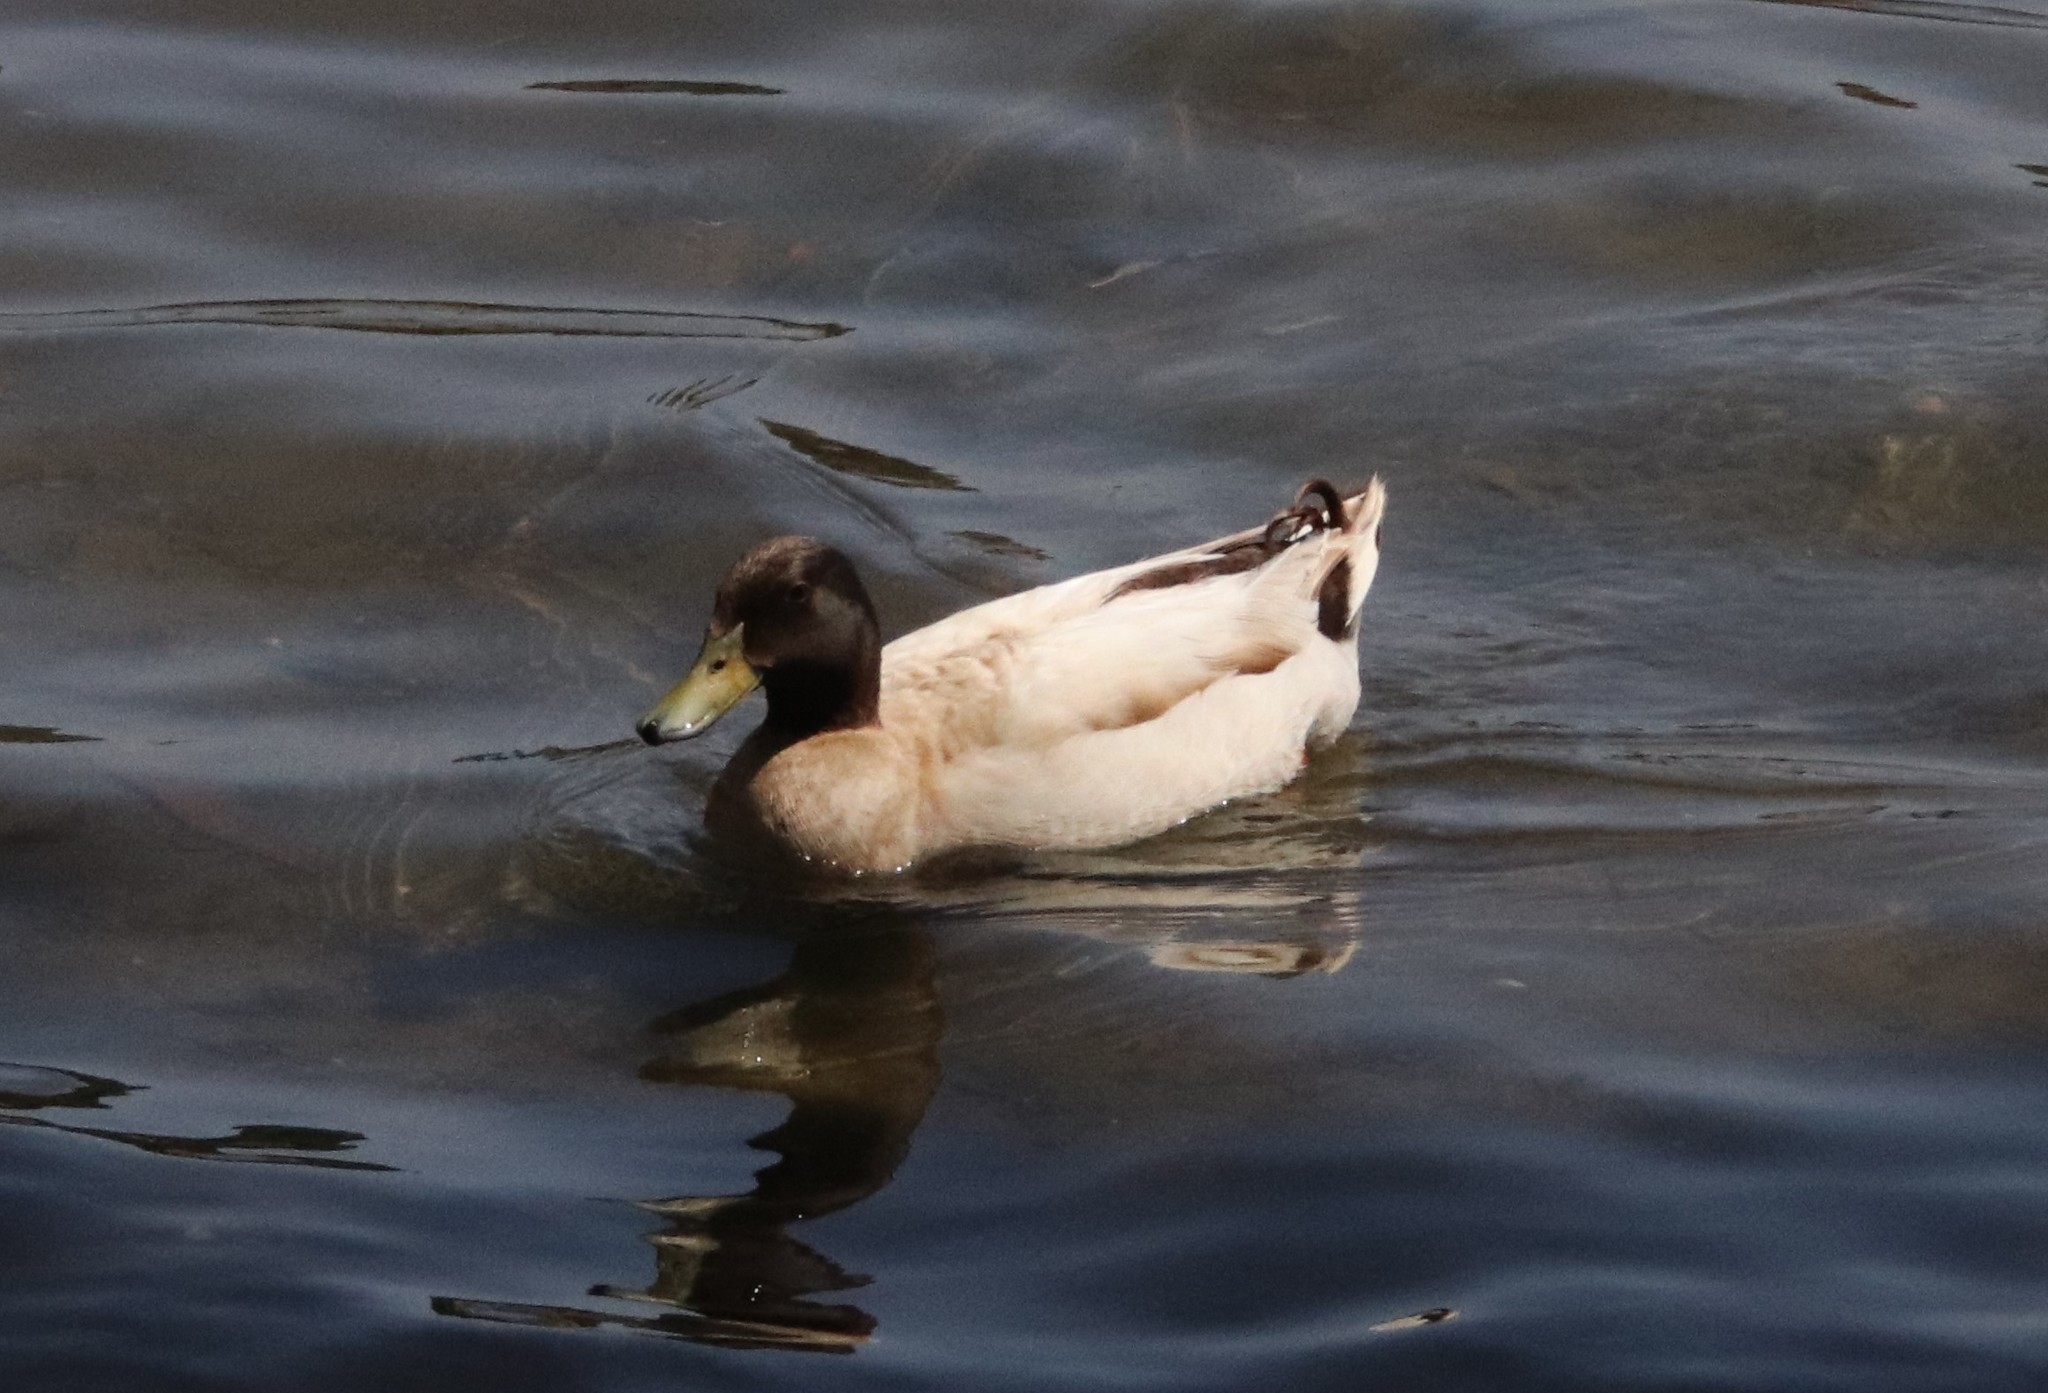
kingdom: Animalia
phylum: Chordata
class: Aves
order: Anseriformes
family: Anatidae
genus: Anas
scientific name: Anas platyrhynchos
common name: Mallard
